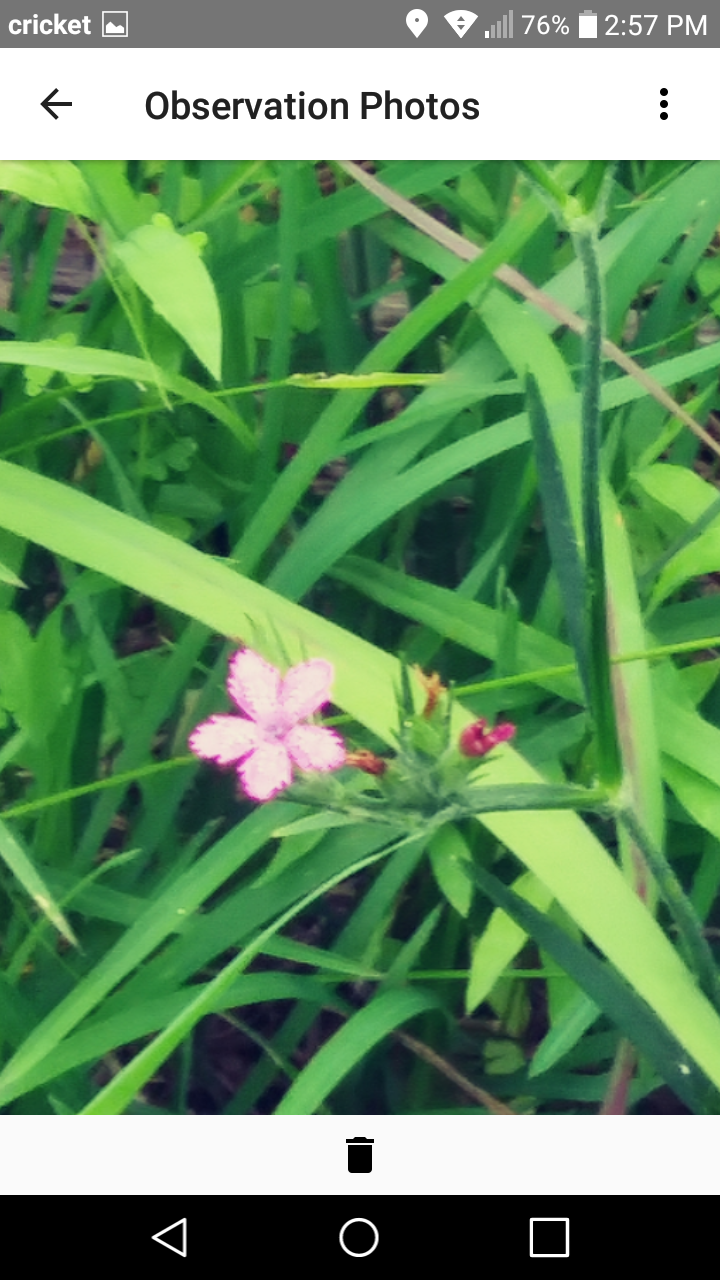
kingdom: Plantae
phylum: Tracheophyta
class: Magnoliopsida
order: Caryophyllales
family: Caryophyllaceae
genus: Dianthus
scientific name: Dianthus armeria
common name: Deptford pink
